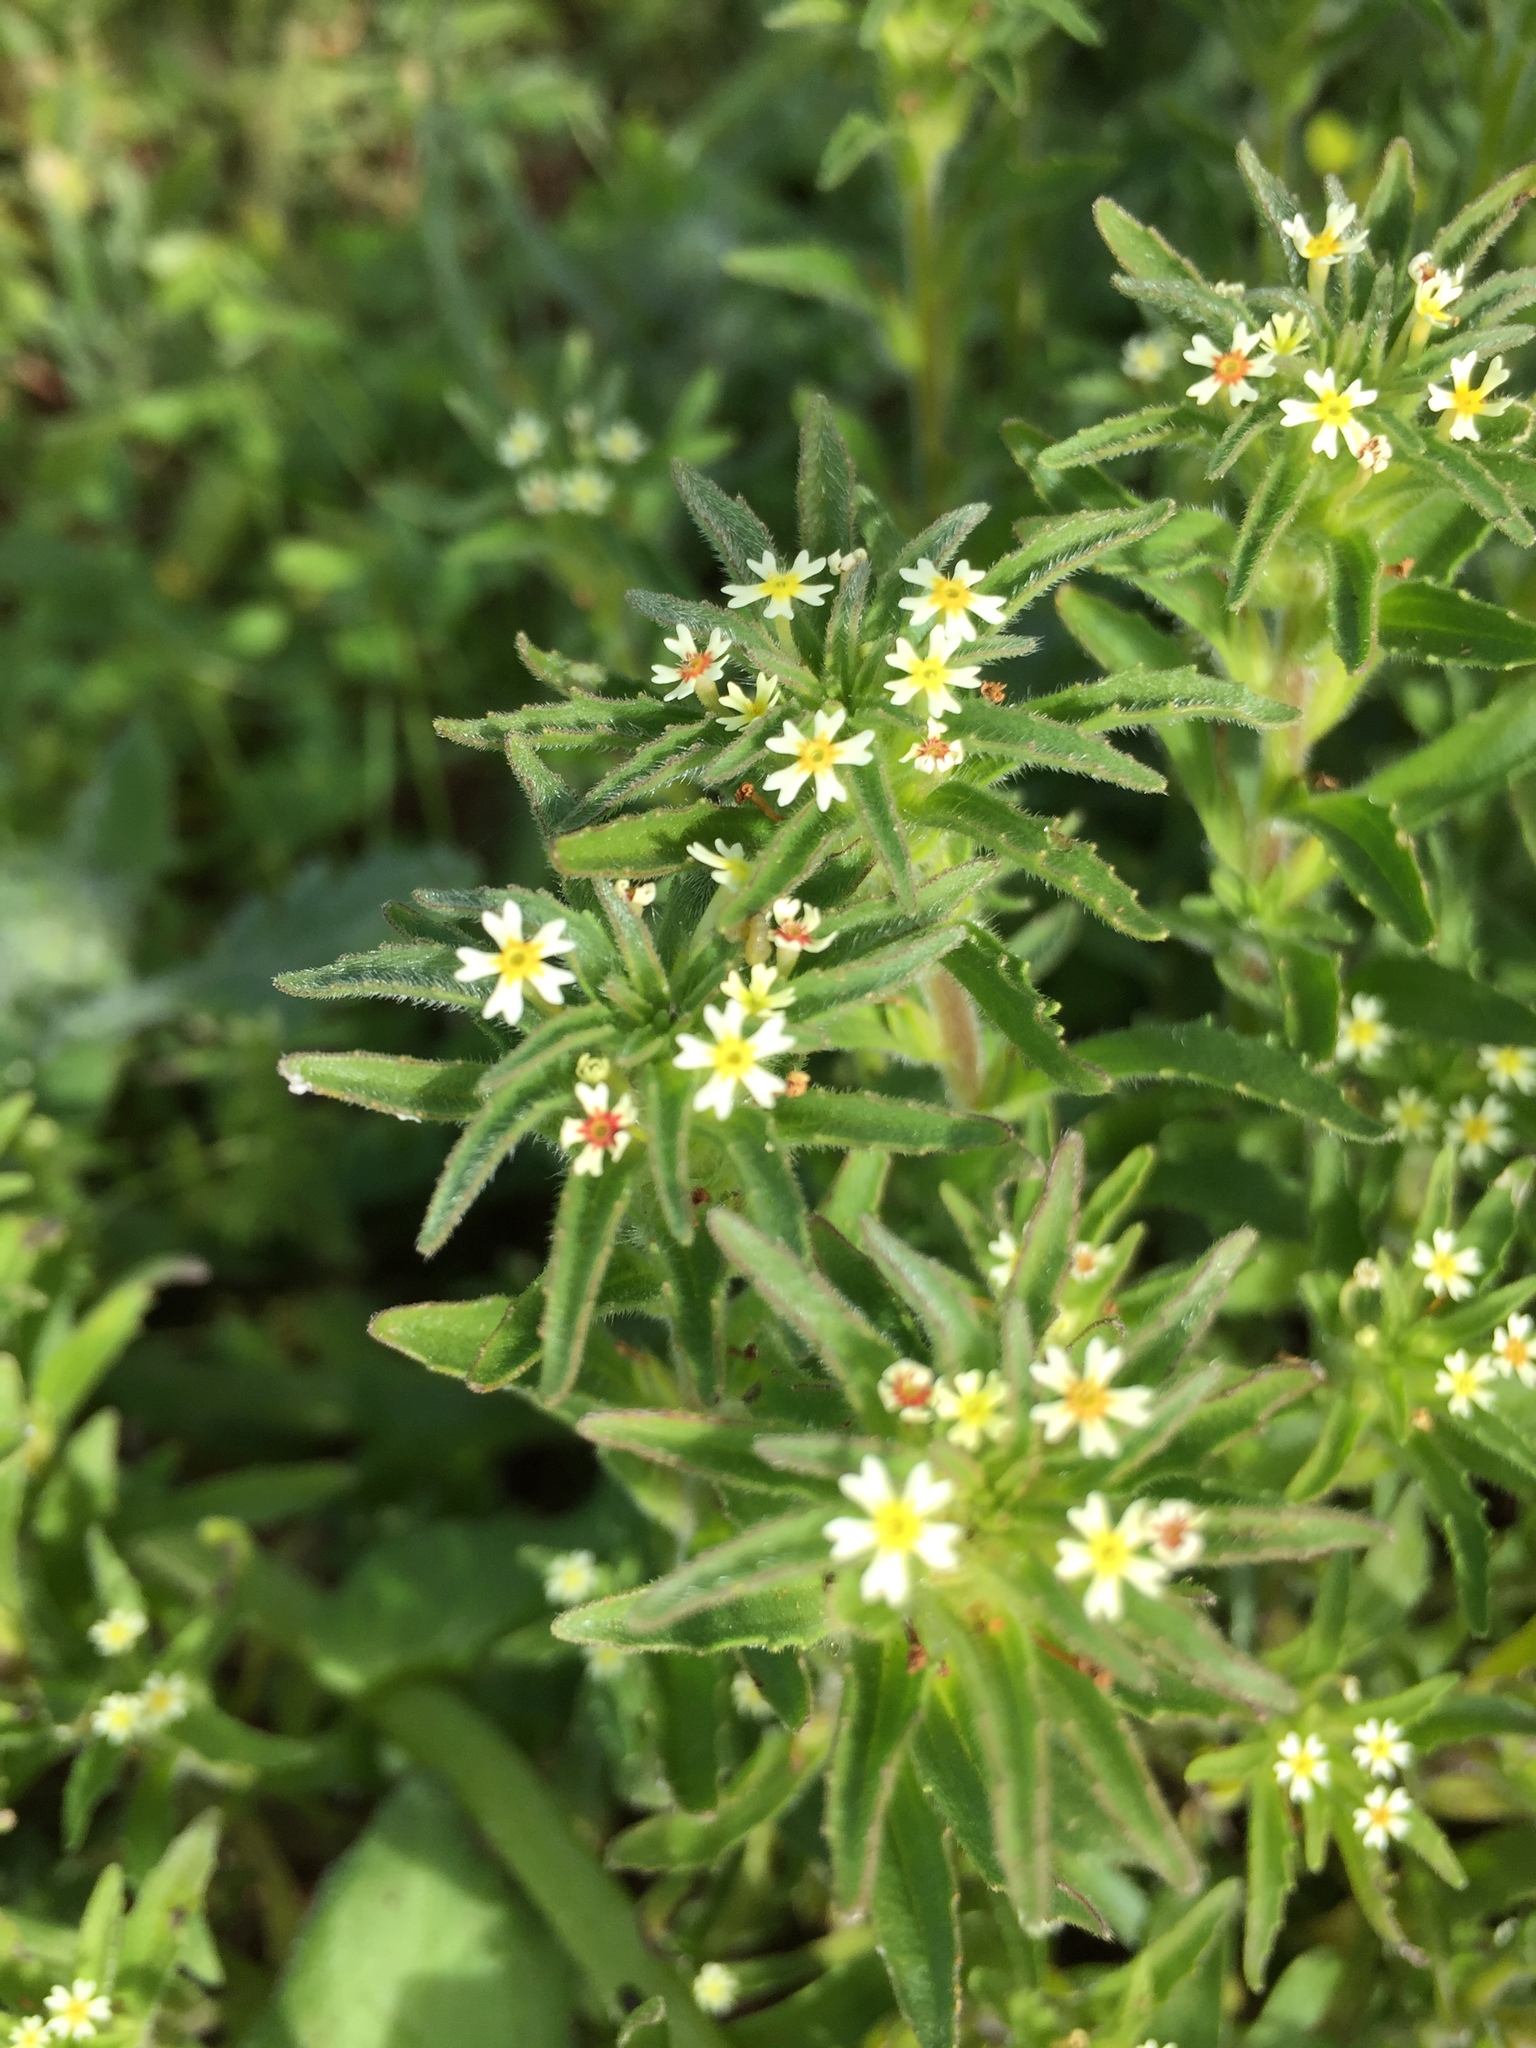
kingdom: Plantae
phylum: Tracheophyta
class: Magnoliopsida
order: Lamiales
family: Scrophulariaceae
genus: Zaluzianskya
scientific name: Zaluzianskya parviflora
